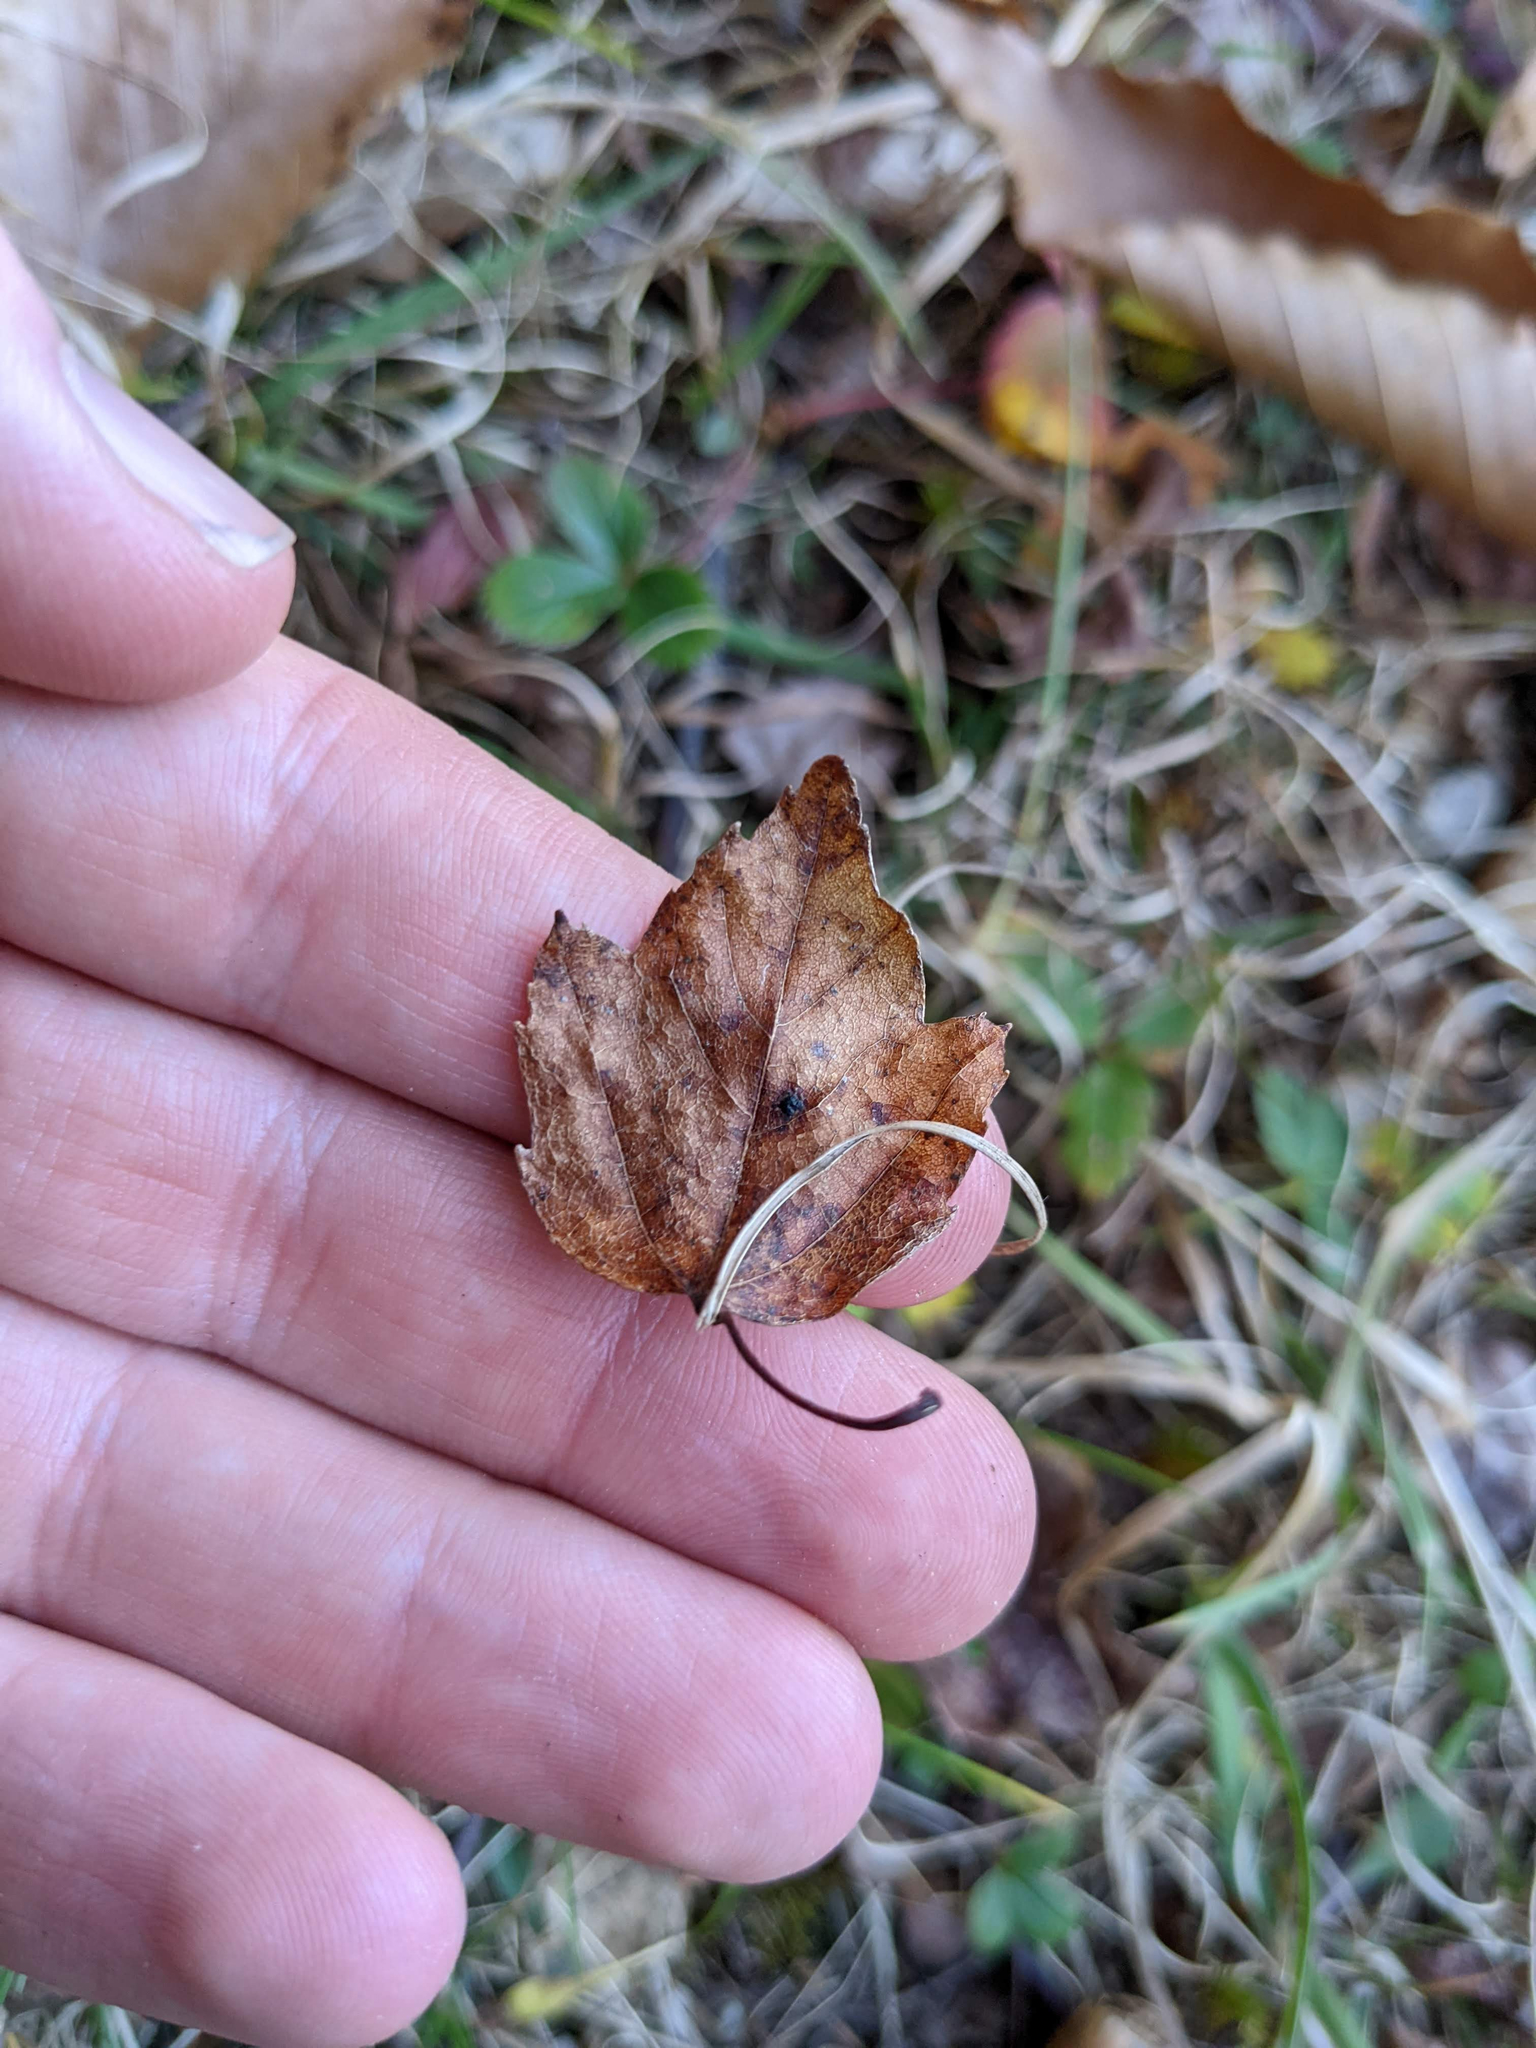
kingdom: Plantae
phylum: Tracheophyta
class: Magnoliopsida
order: Sapindales
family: Sapindaceae
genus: Acer
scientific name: Acer rubrum
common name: Red maple
